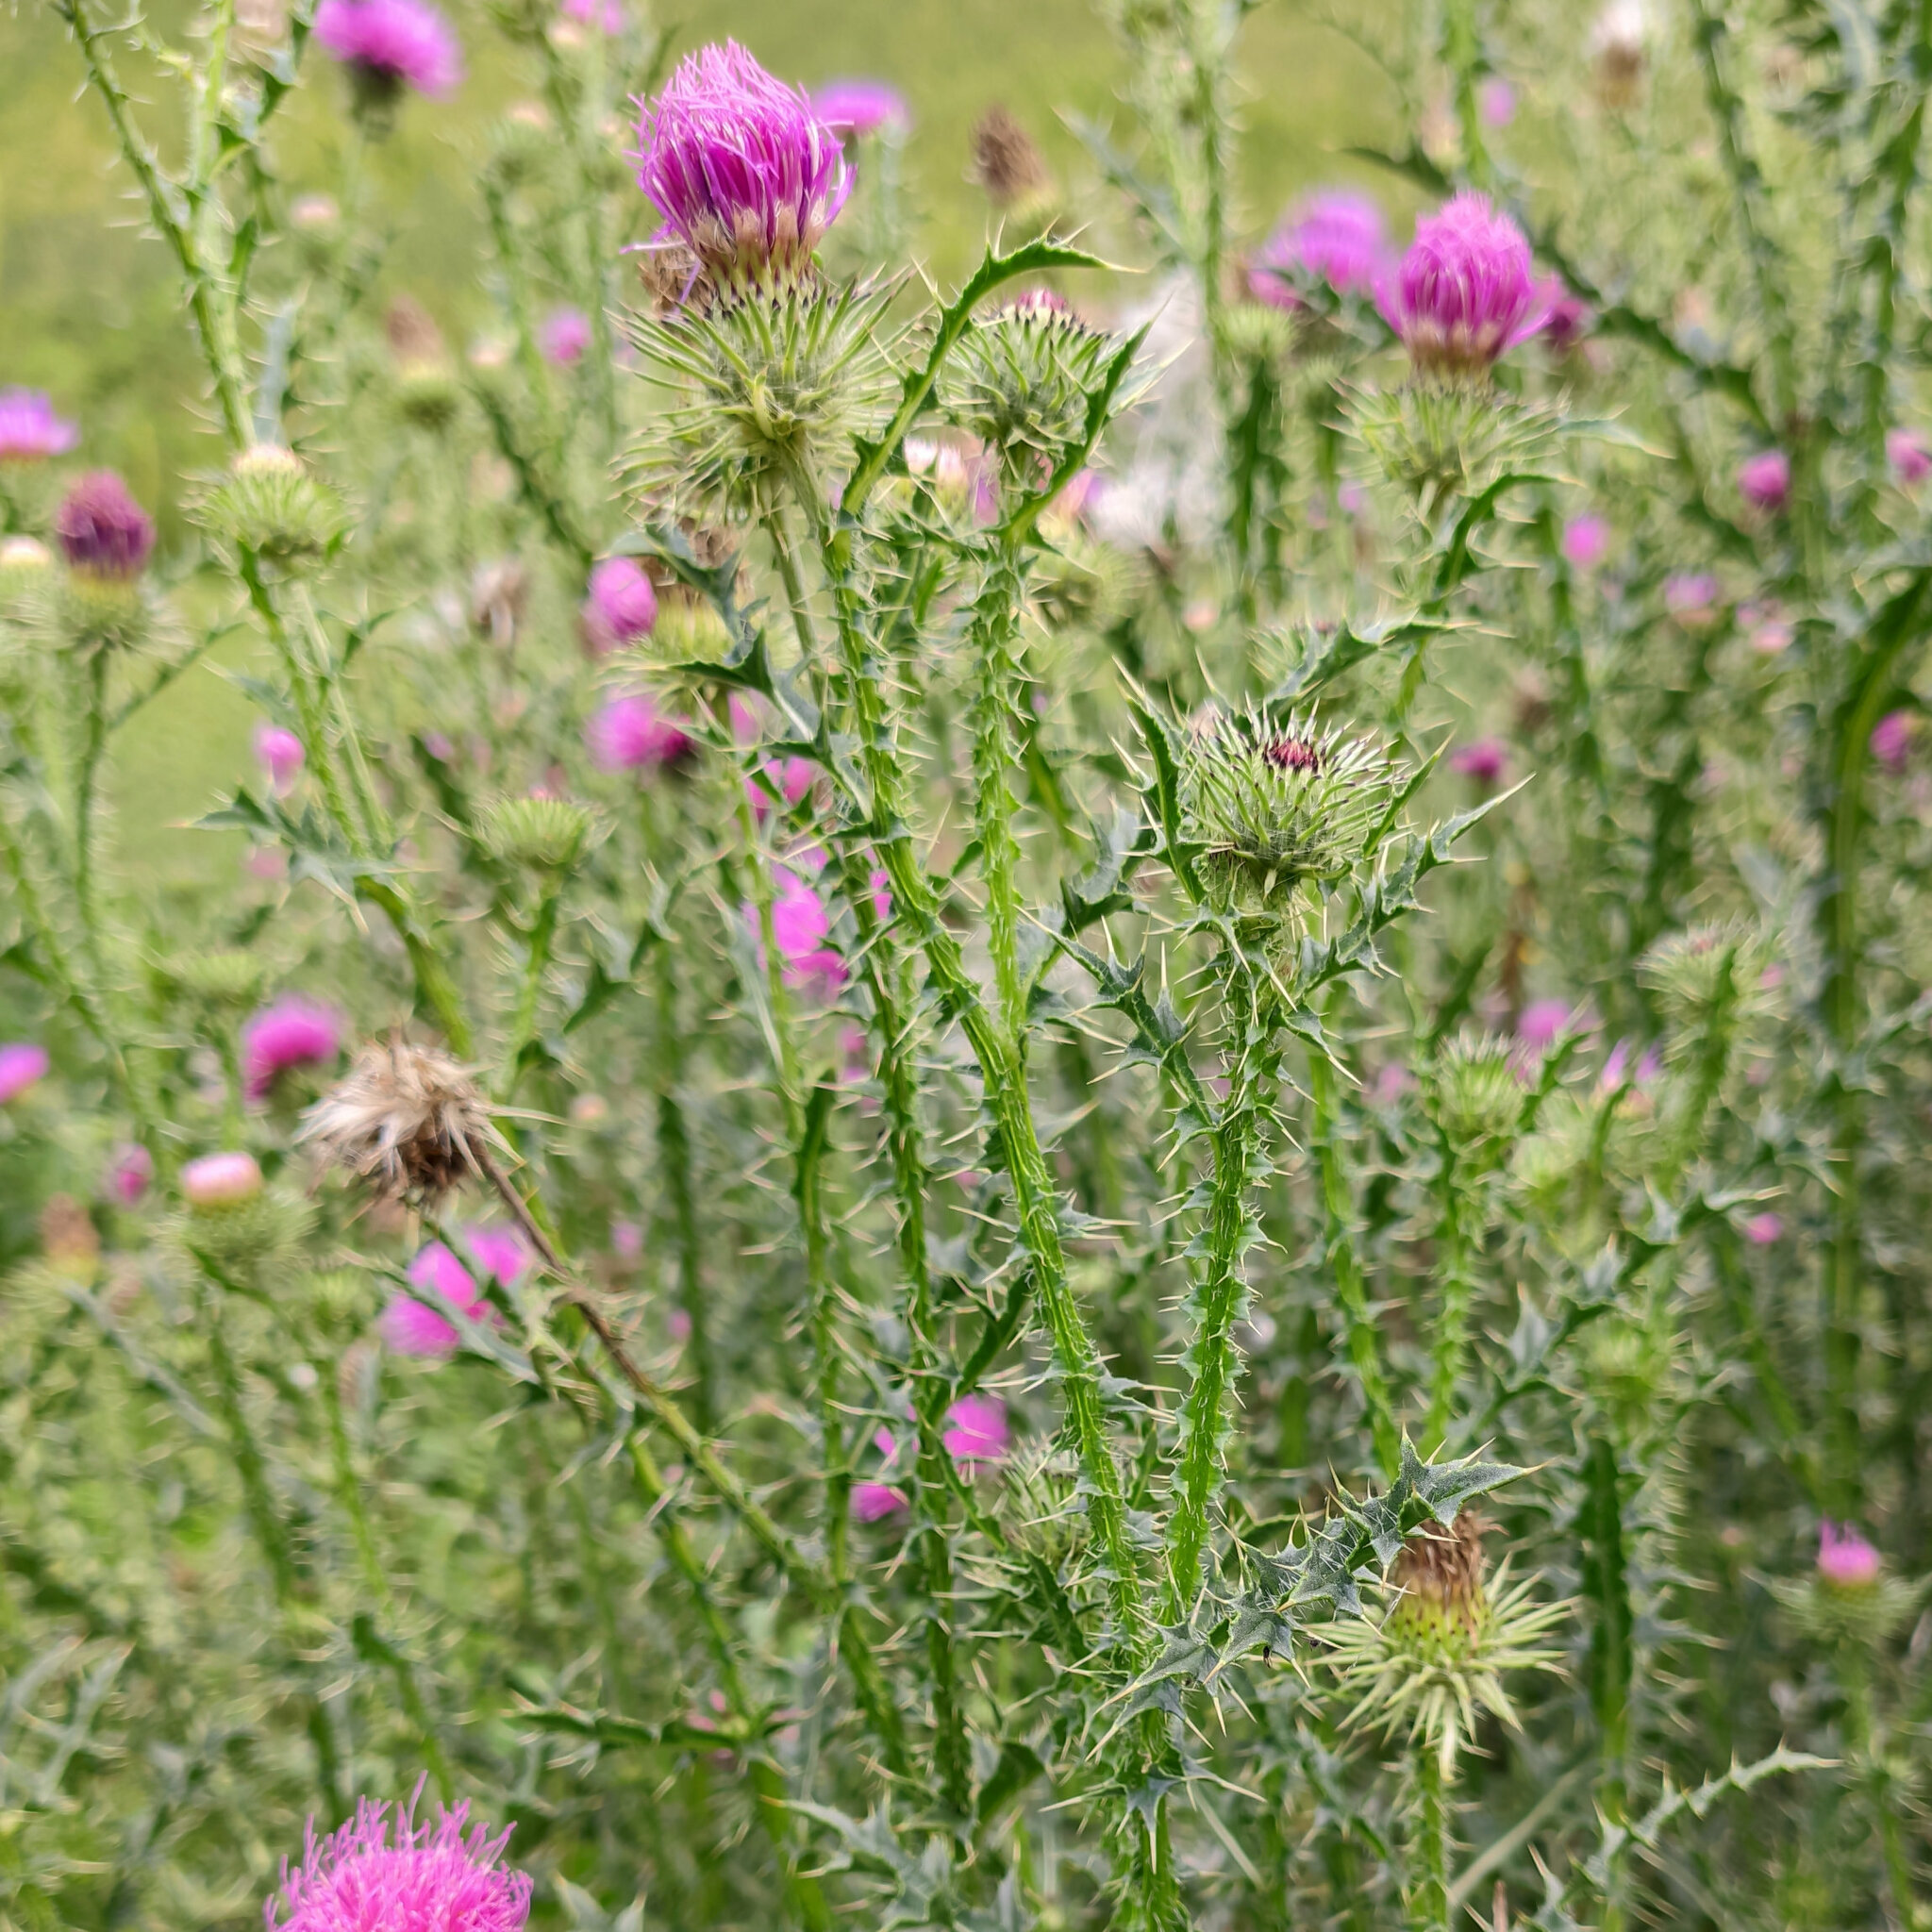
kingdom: Plantae
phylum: Tracheophyta
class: Magnoliopsida
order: Asterales
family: Asteraceae
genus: Carduus
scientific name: Carduus acanthoides
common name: Plumeless thistle
